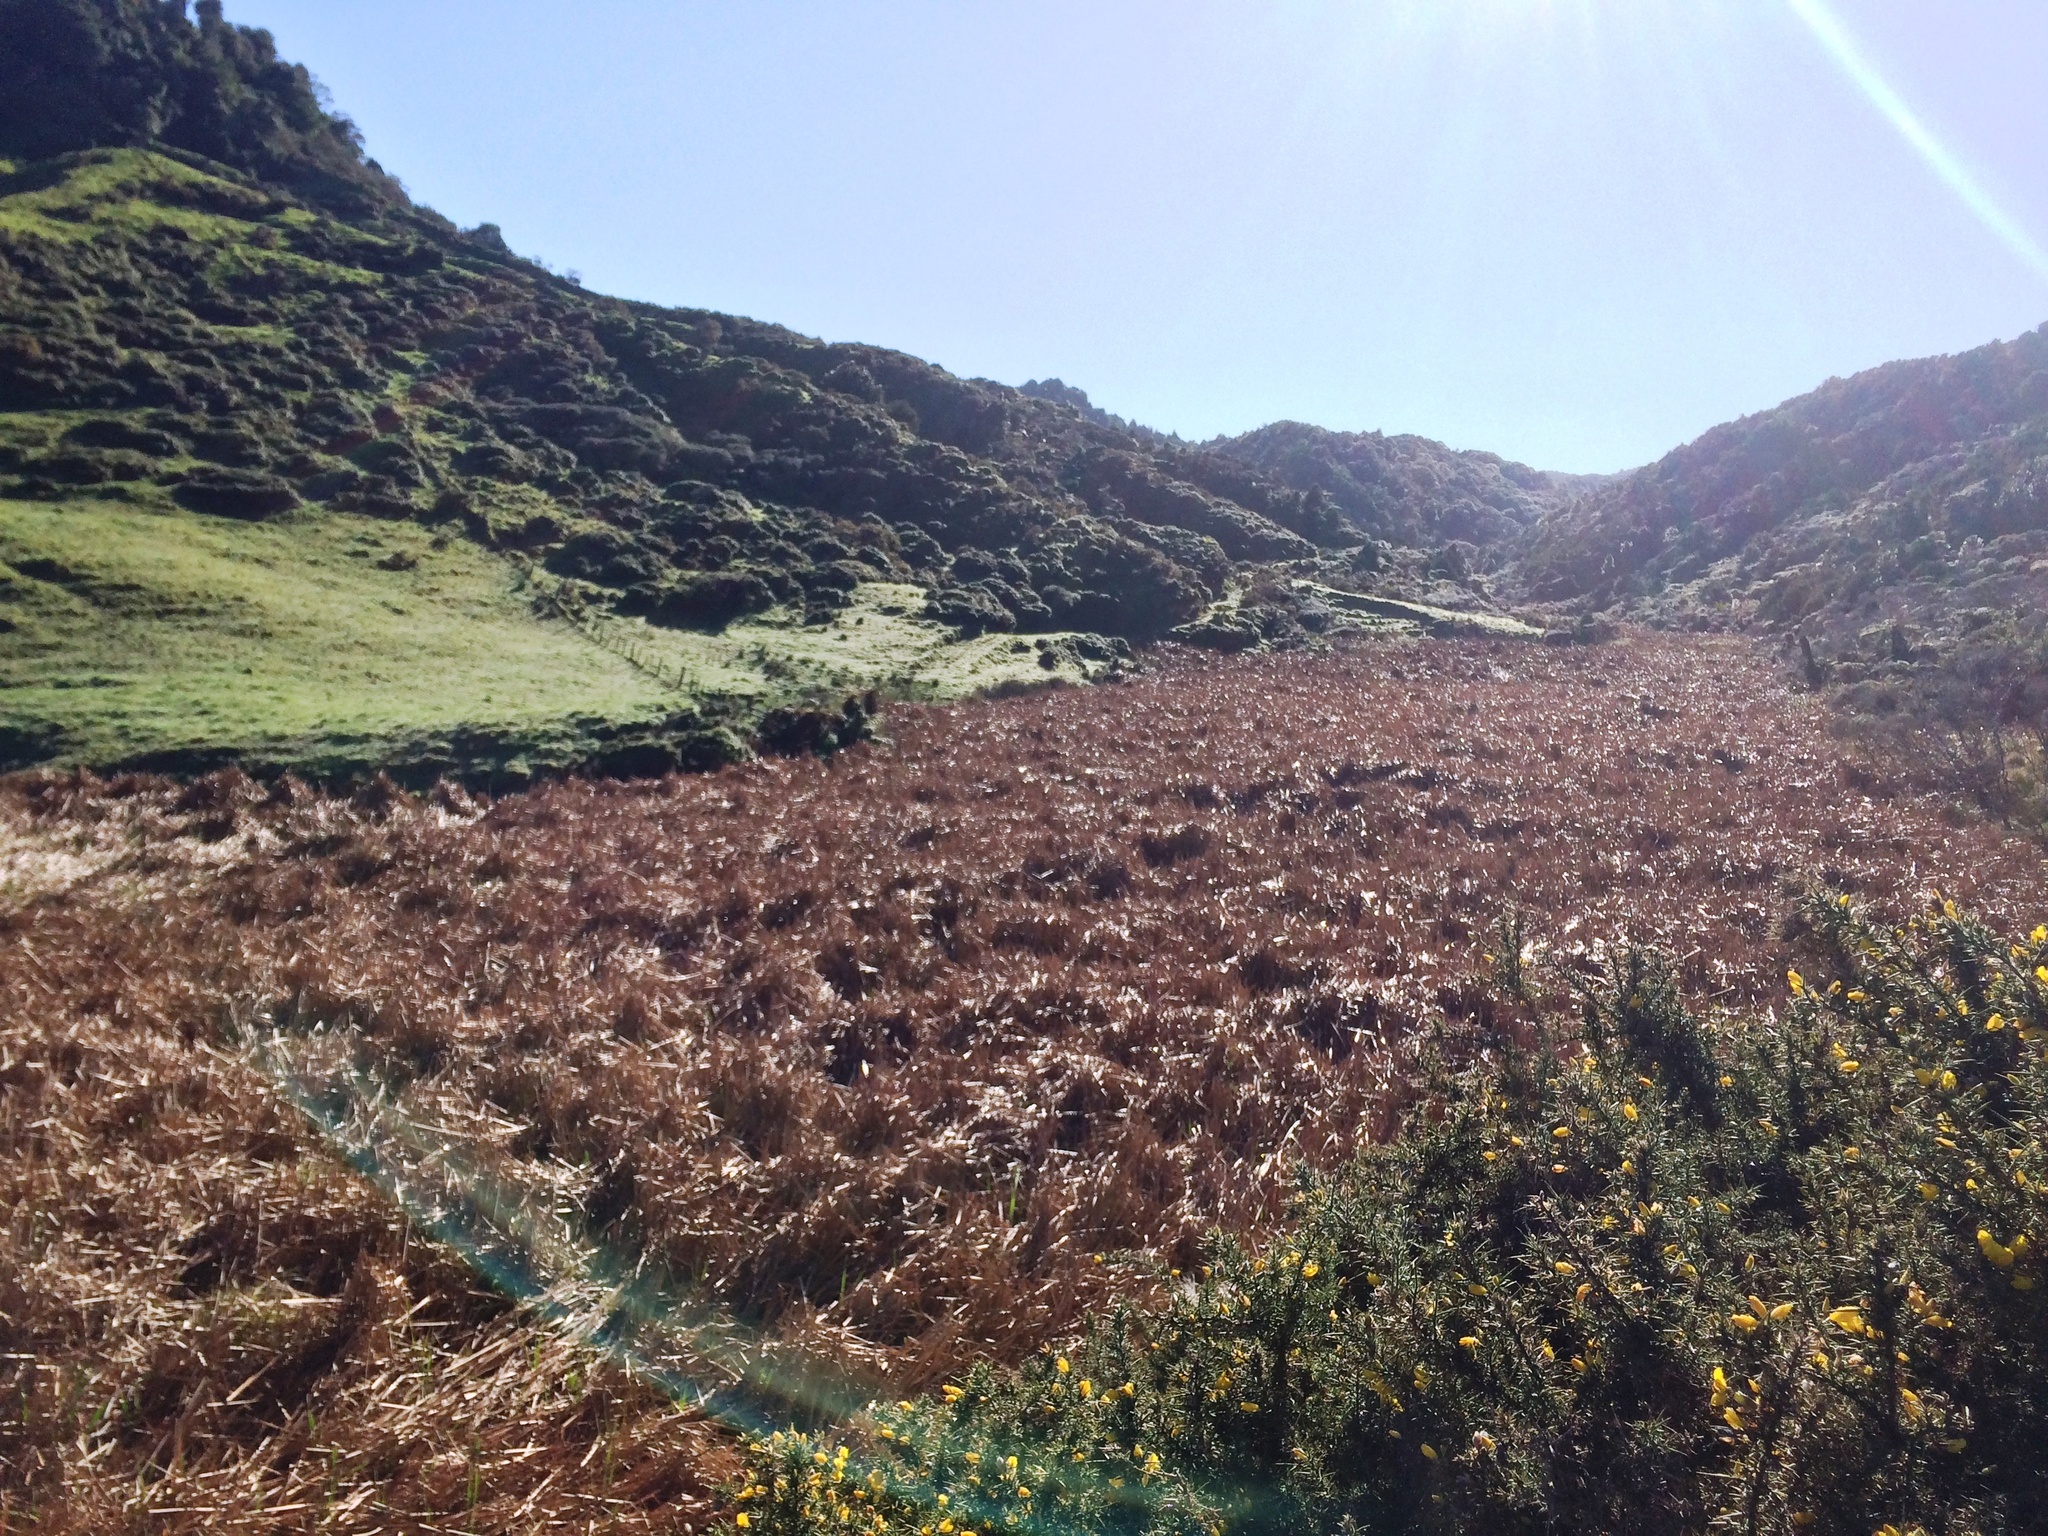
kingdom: Plantae
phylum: Tracheophyta
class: Liliopsida
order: Poales
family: Typhaceae
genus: Typha
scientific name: Typha orientalis
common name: Bullrush
